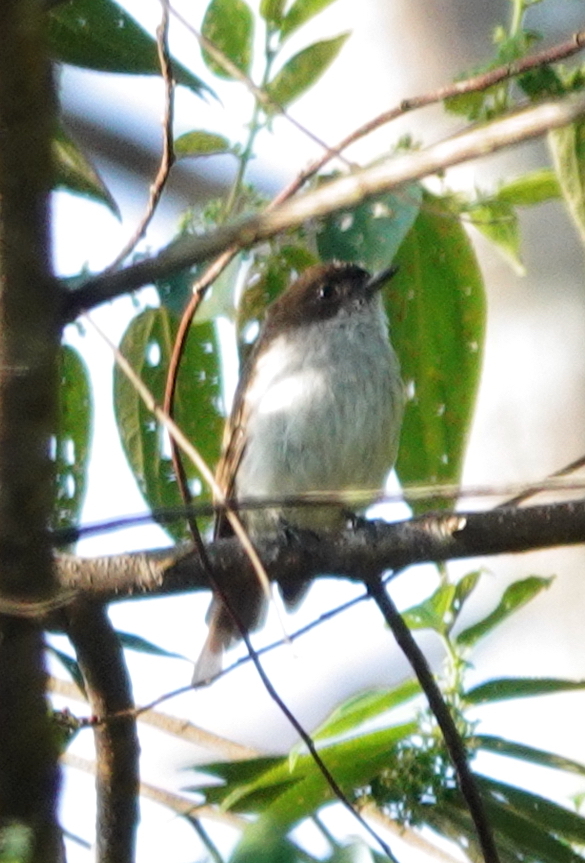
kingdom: Animalia
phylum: Chordata
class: Aves
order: Passeriformes
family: Muscicapidae
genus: Rhinomyias
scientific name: Rhinomyias additus
